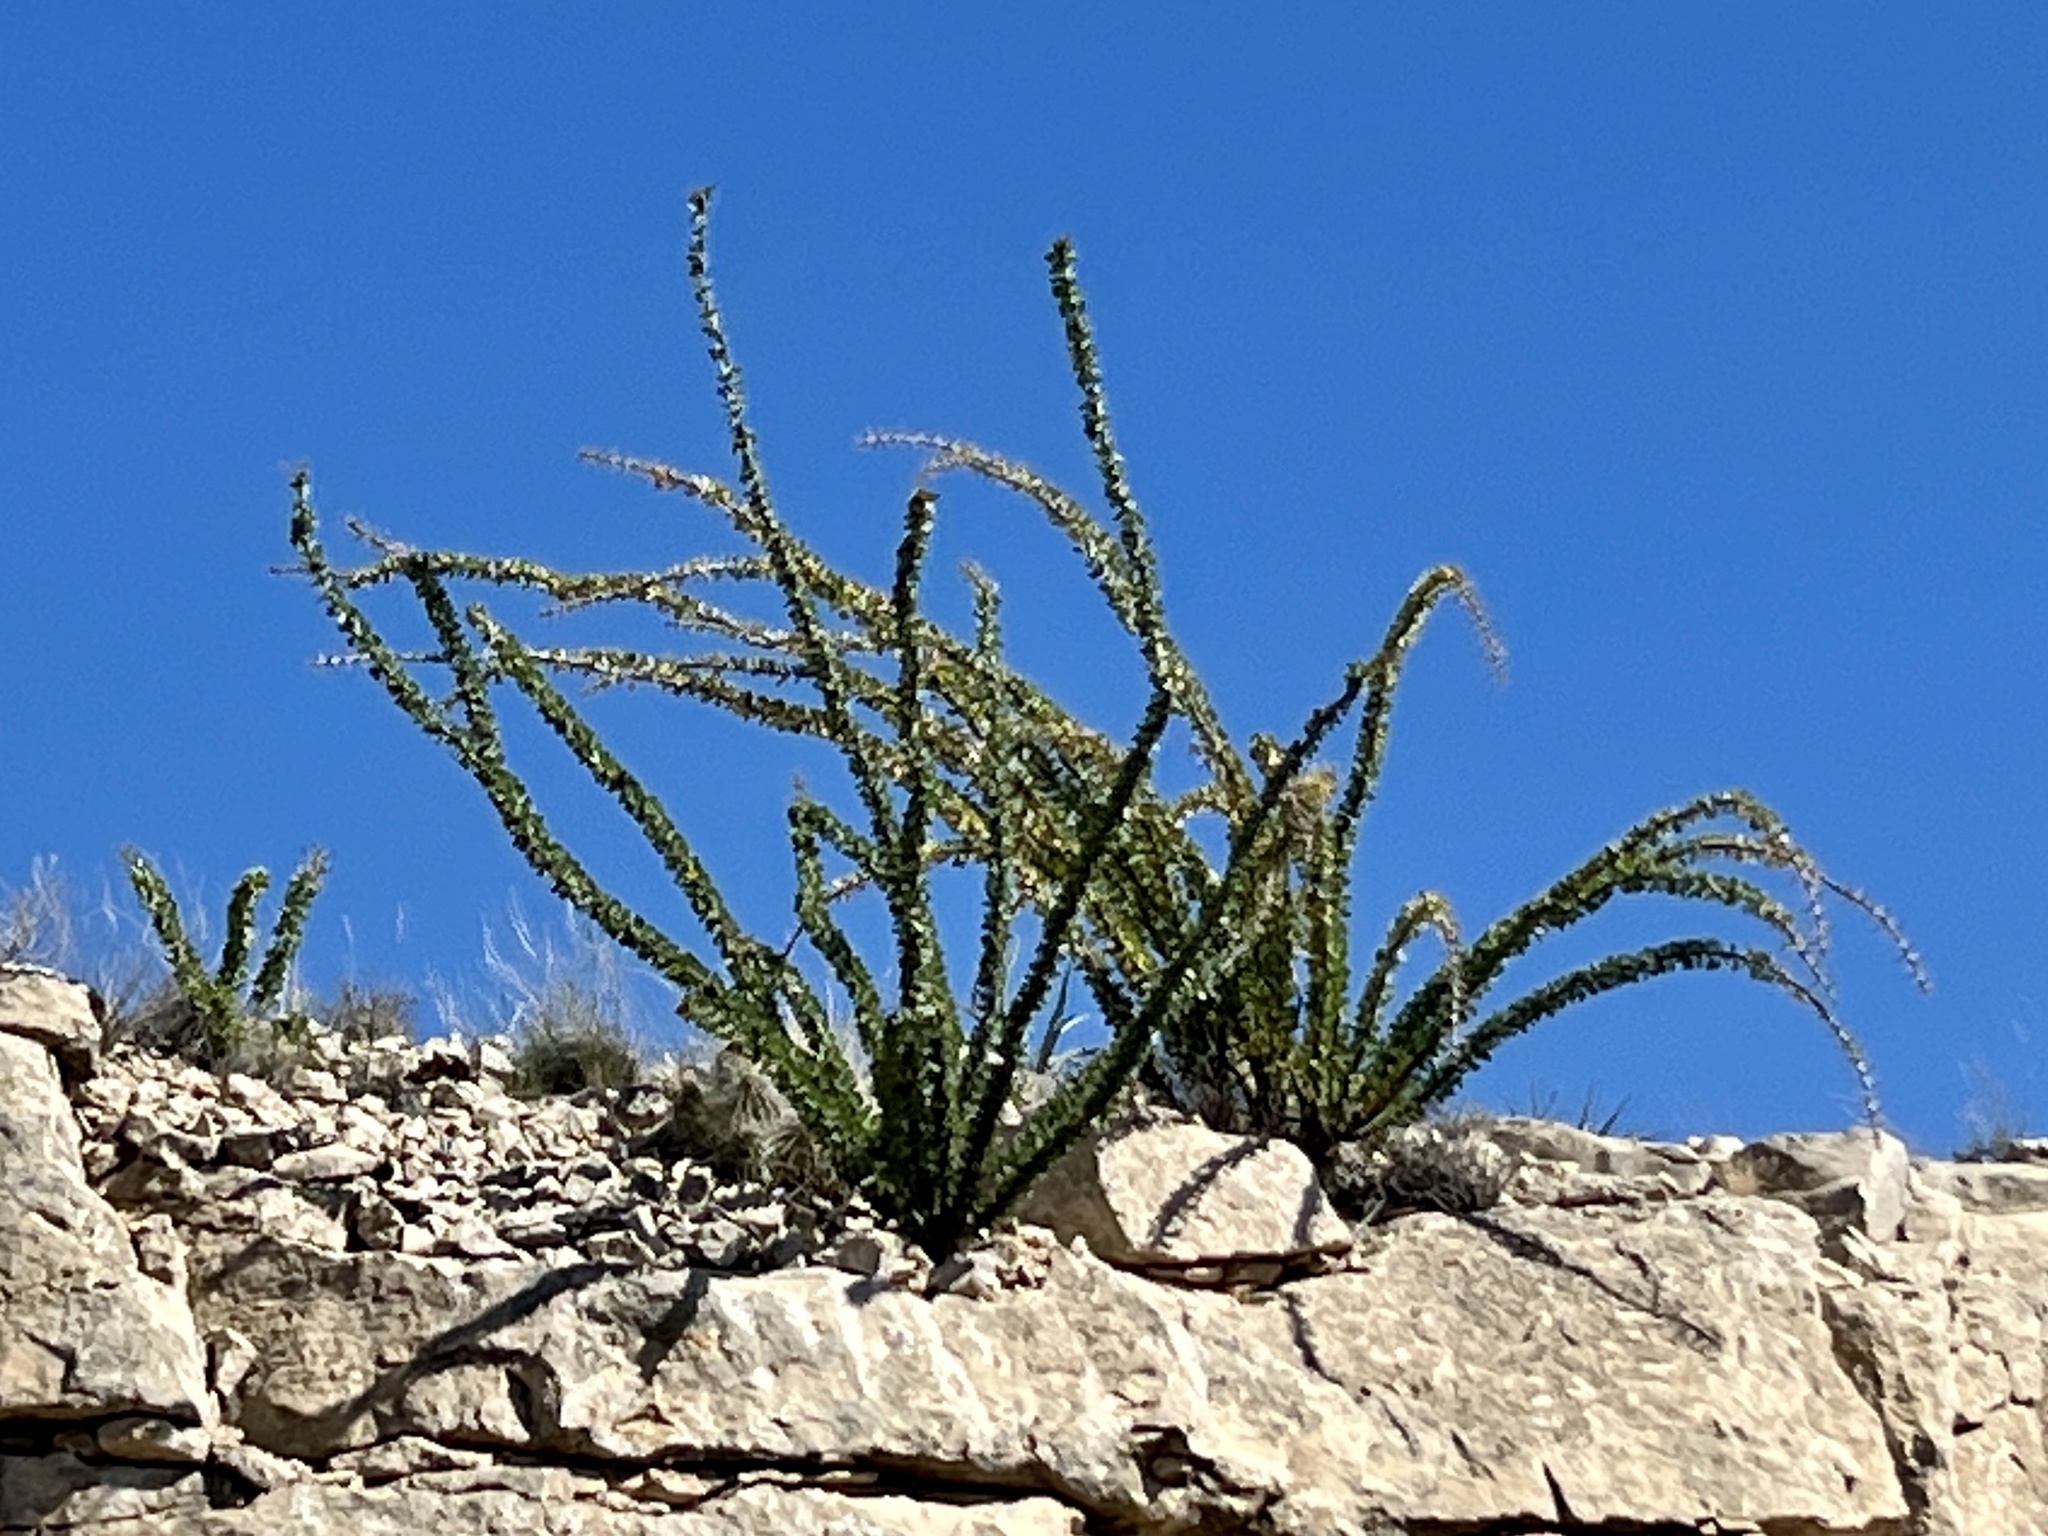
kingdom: Plantae
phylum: Tracheophyta
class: Magnoliopsida
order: Ericales
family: Fouquieriaceae
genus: Fouquieria
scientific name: Fouquieria splendens
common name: Vine-cactus
